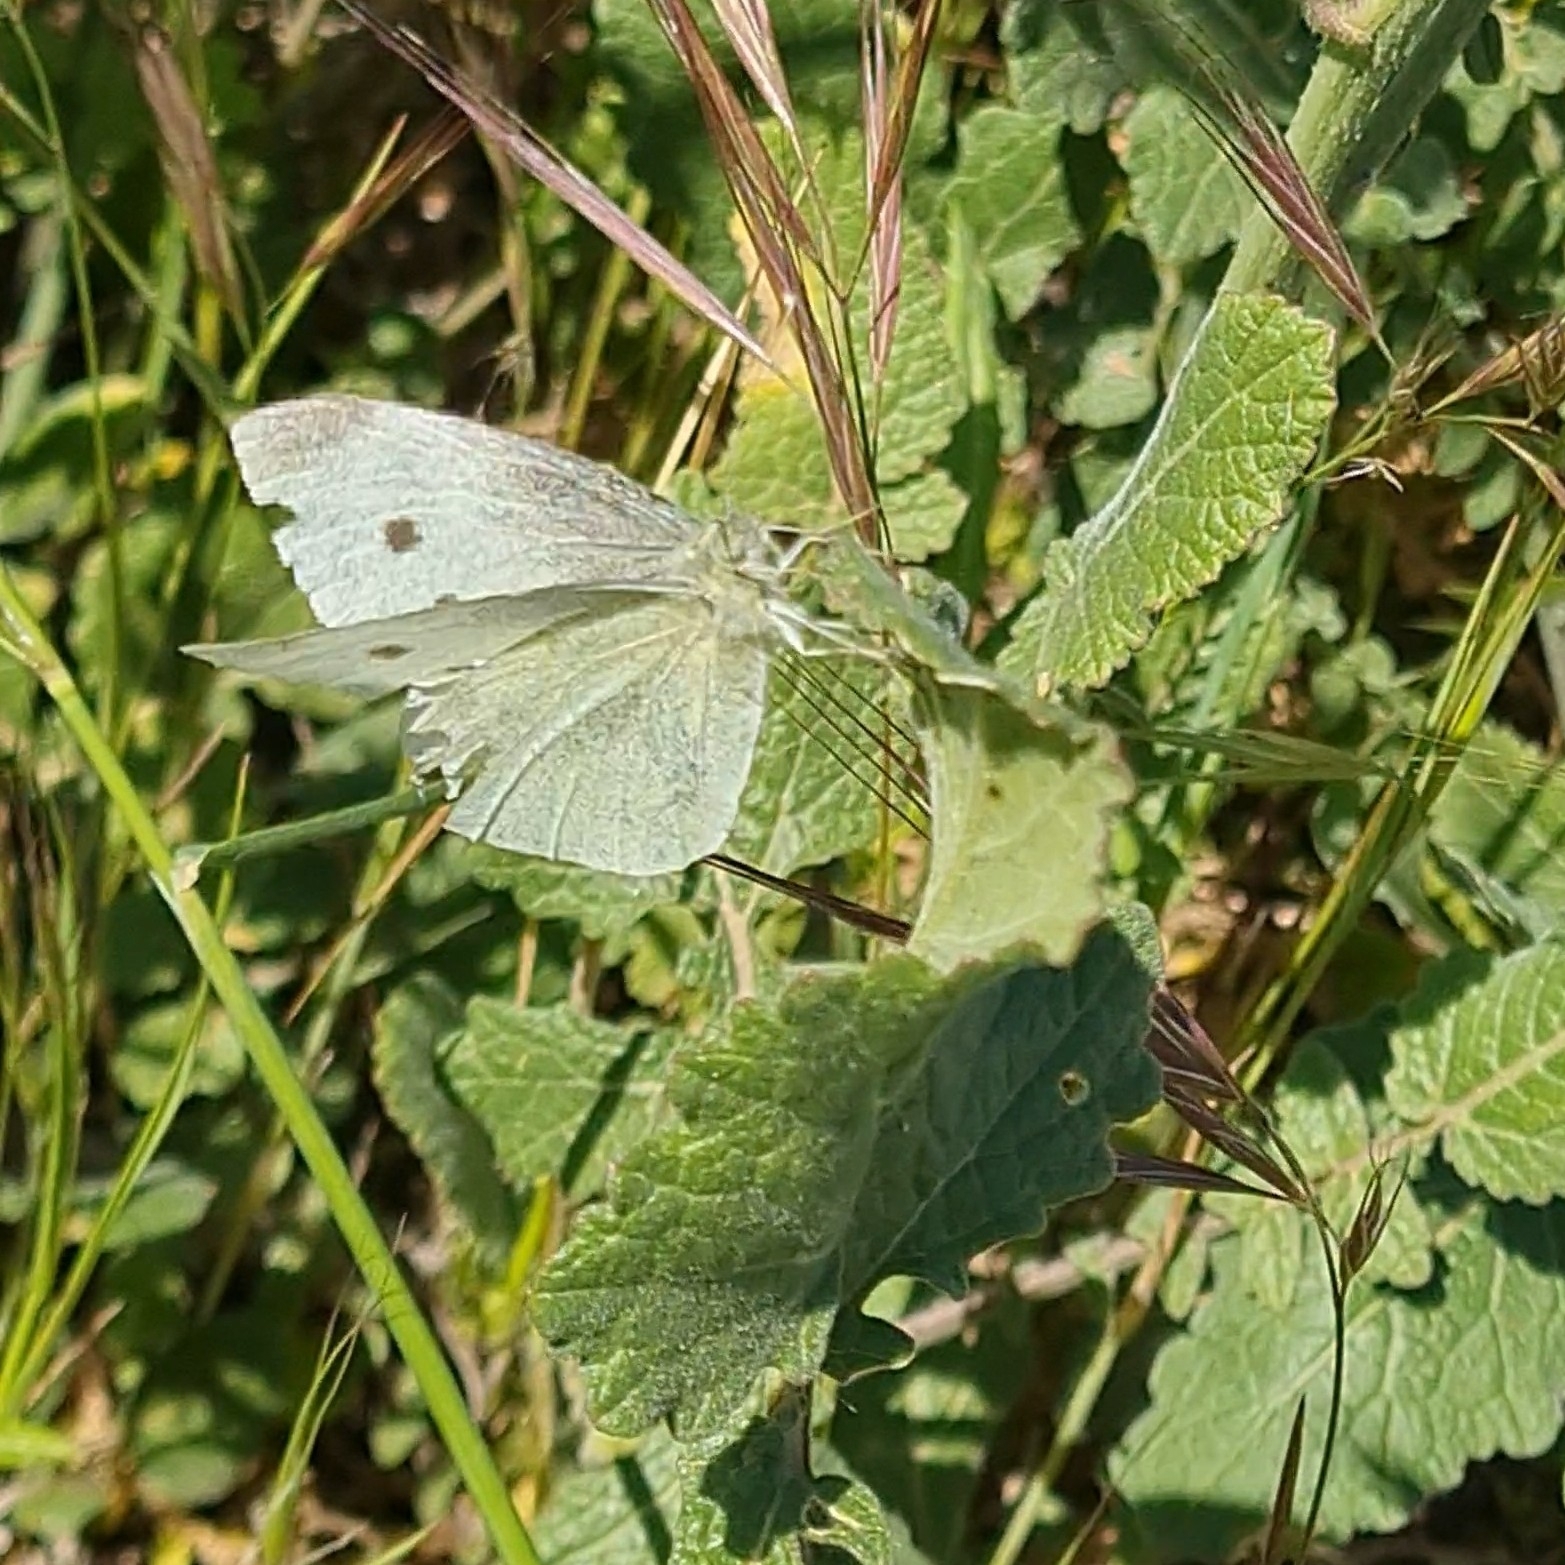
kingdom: Animalia
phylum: Arthropoda
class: Insecta
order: Lepidoptera
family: Pieridae
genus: Pieris
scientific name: Pieris rapae
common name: Small white
